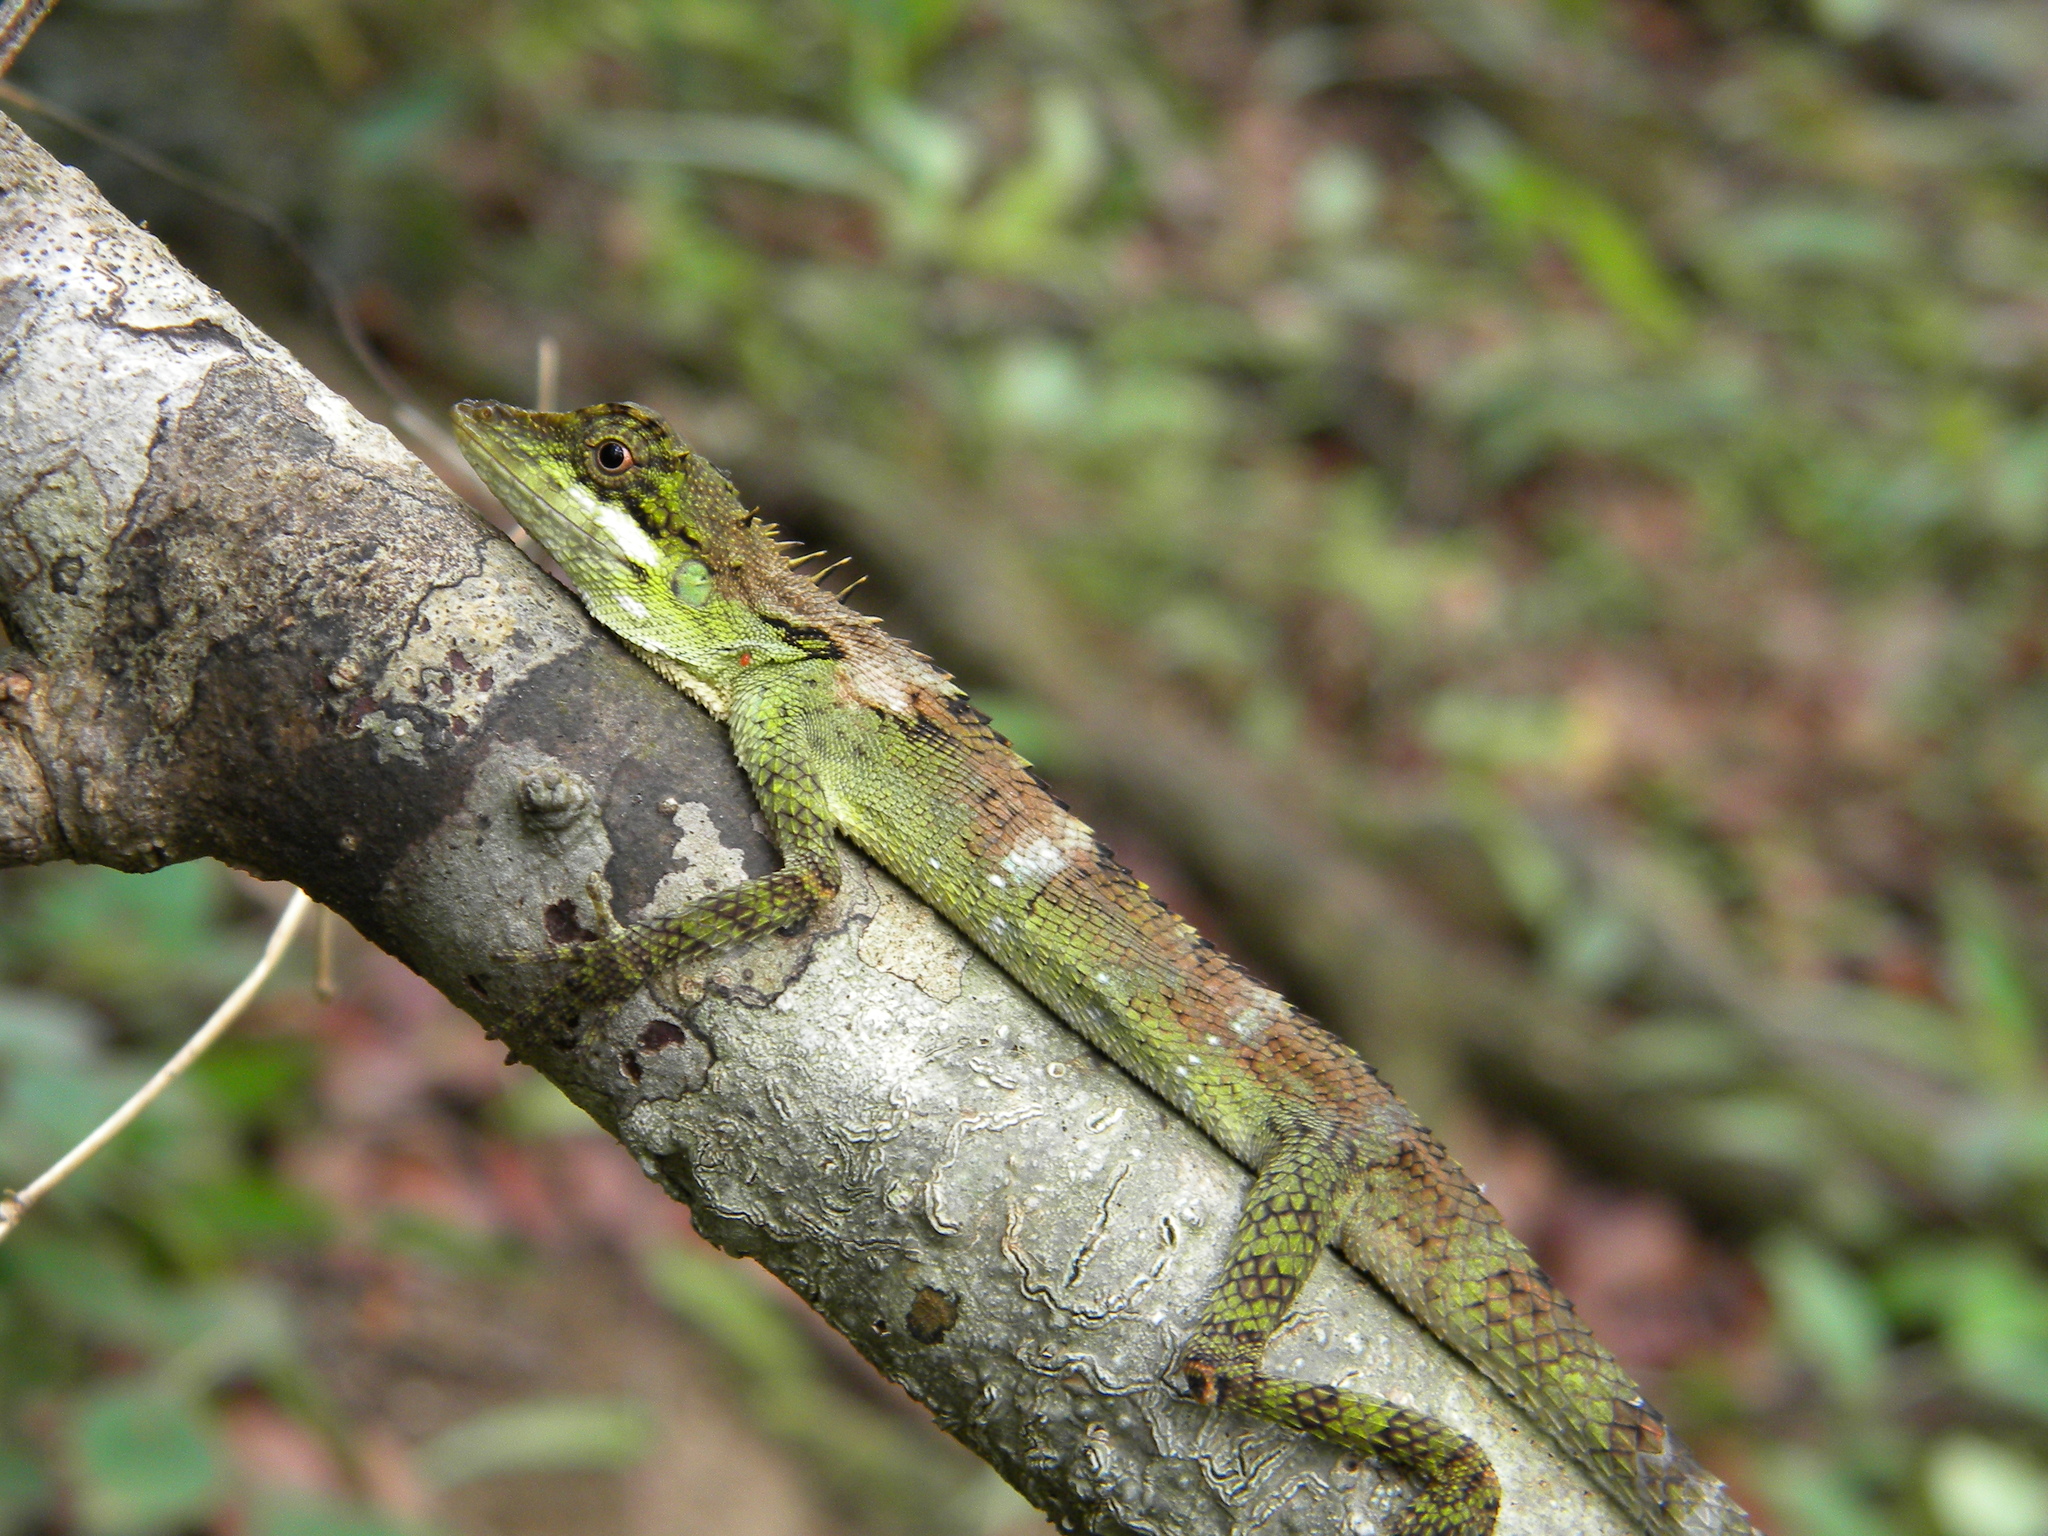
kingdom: Animalia
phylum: Chordata
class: Squamata
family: Agamidae
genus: Monilesaurus
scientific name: Monilesaurus ellioti
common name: Elliot's forest lizard
